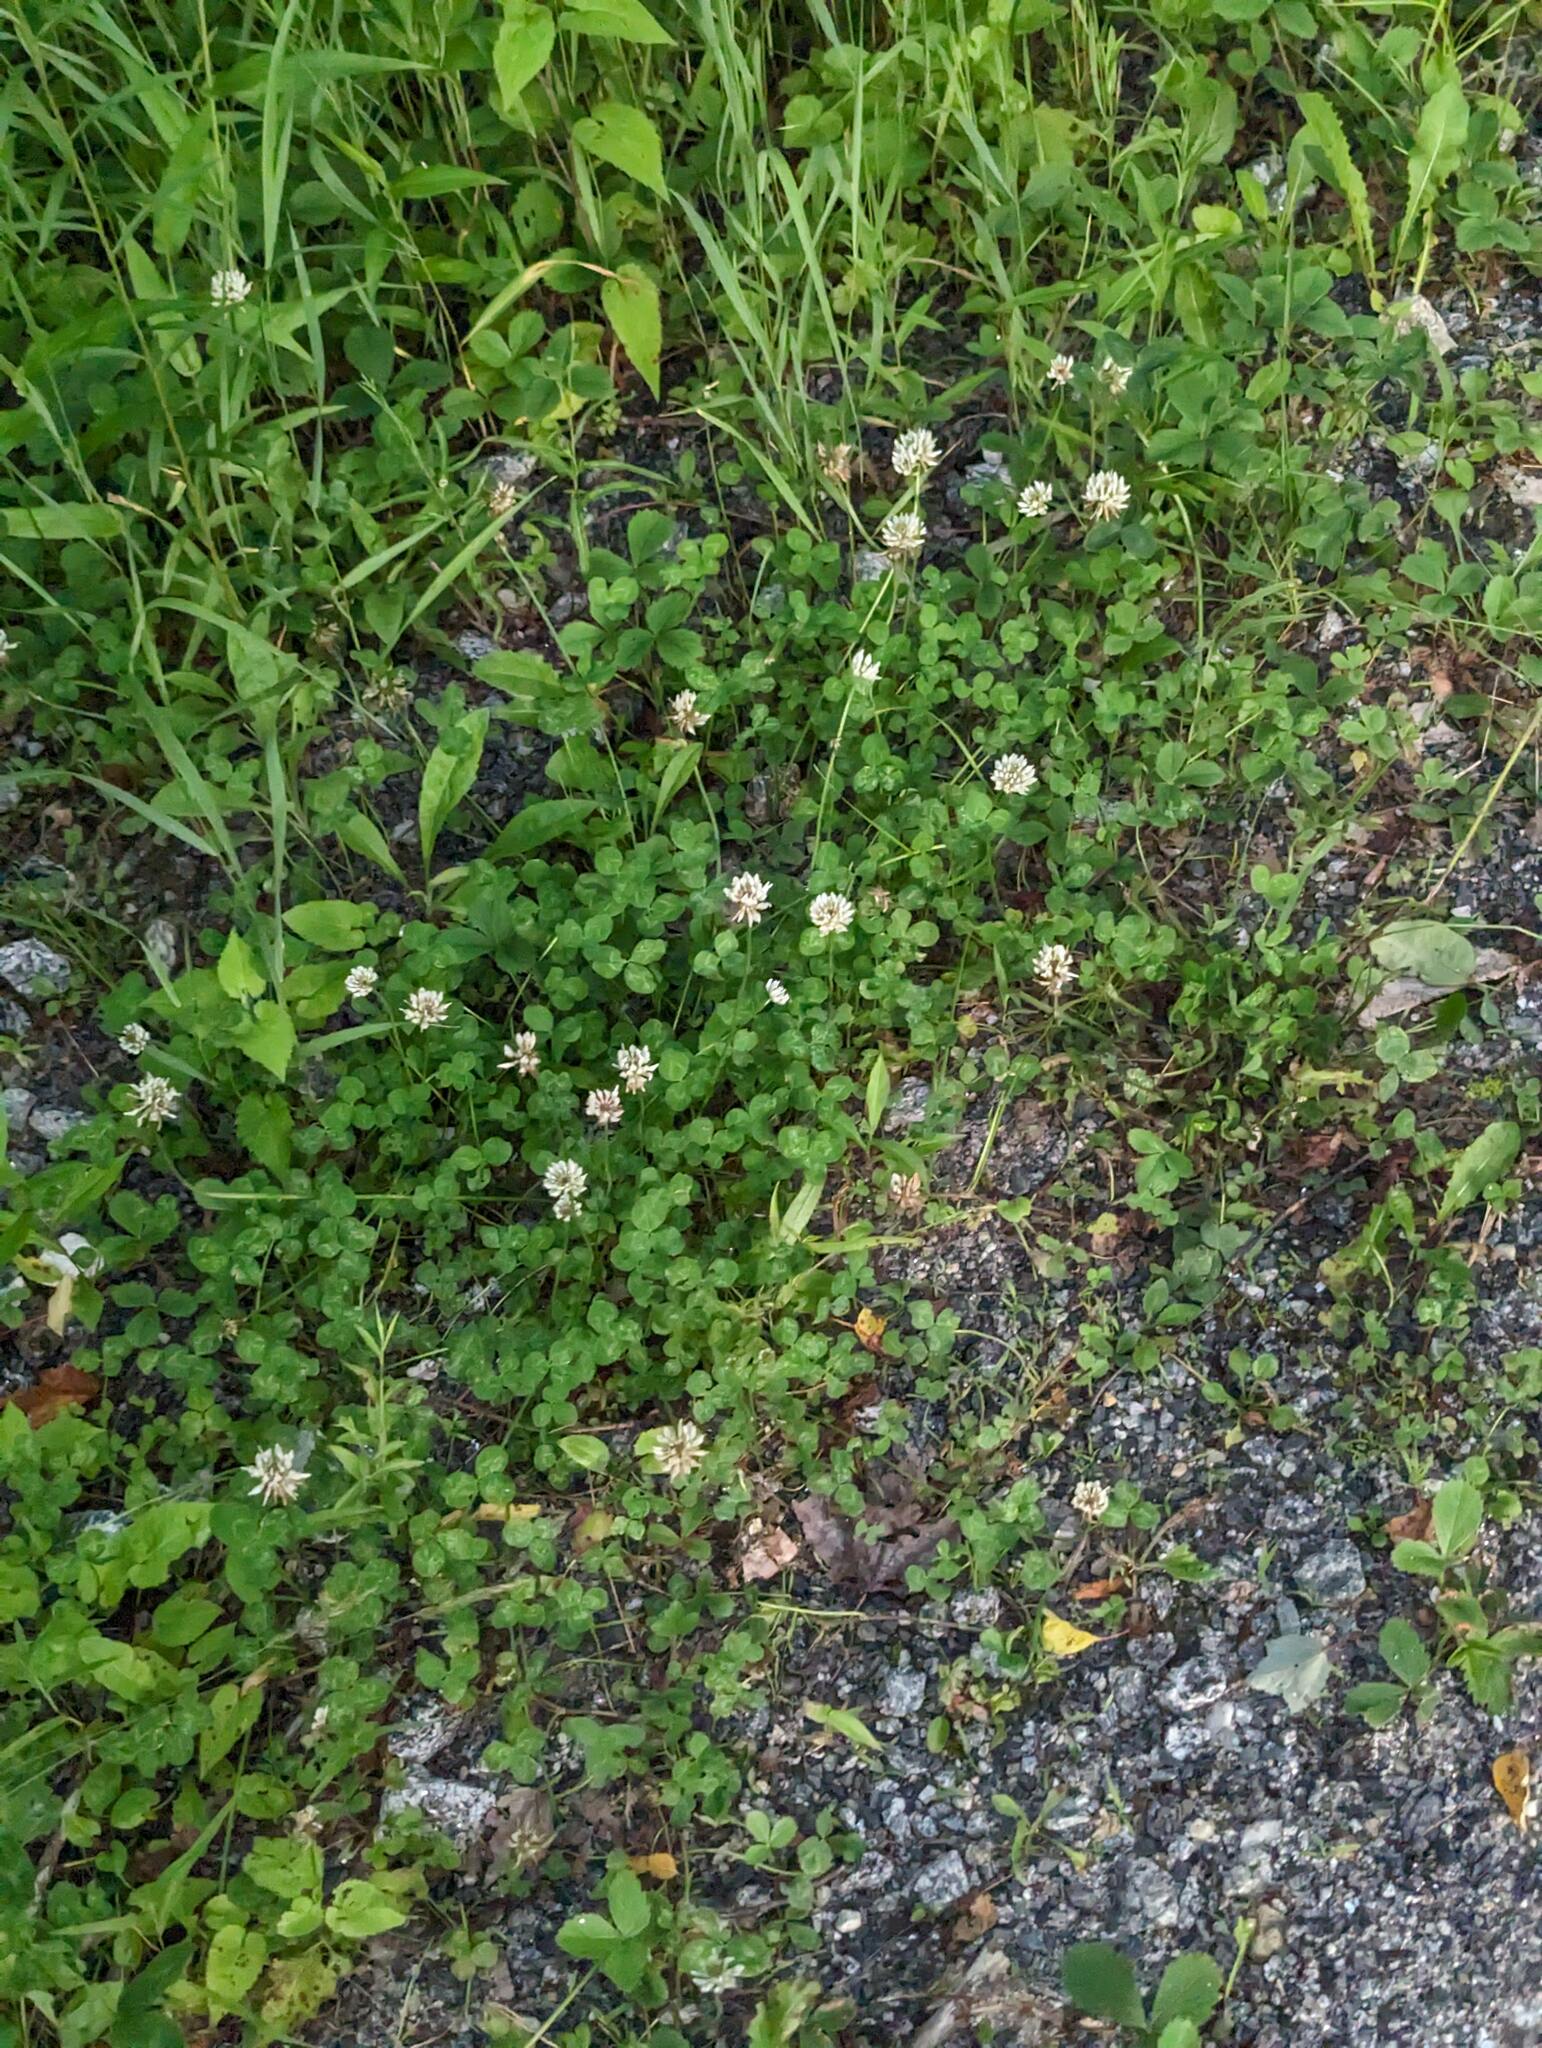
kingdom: Plantae
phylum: Tracheophyta
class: Magnoliopsida
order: Fabales
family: Fabaceae
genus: Trifolium
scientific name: Trifolium repens
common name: White clover
